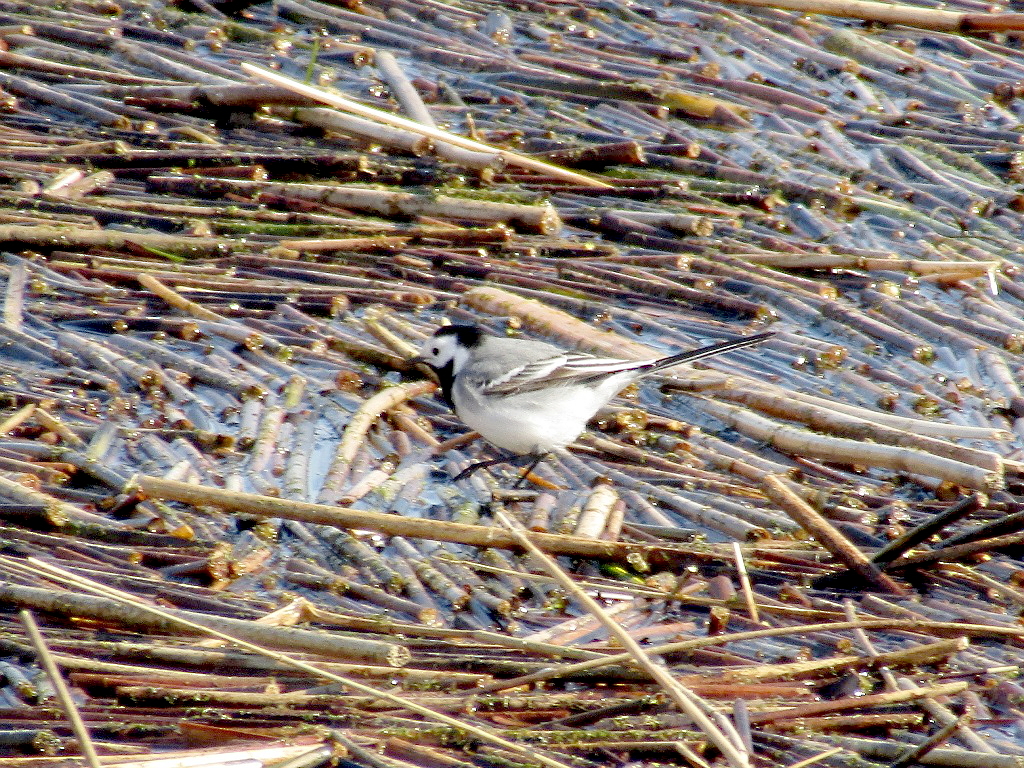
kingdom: Animalia
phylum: Chordata
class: Aves
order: Passeriformes
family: Motacillidae
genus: Motacilla
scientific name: Motacilla alba
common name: White wagtail
